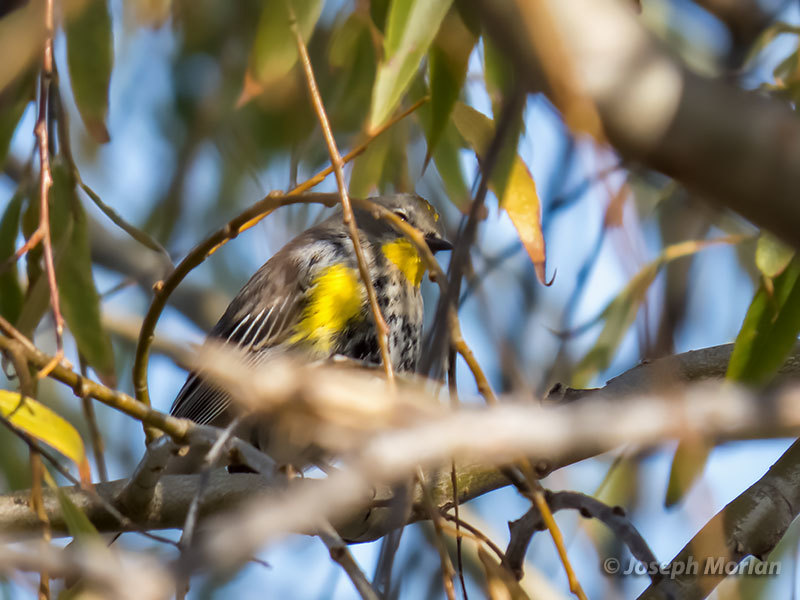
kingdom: Animalia
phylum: Chordata
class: Aves
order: Passeriformes
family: Parulidae
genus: Setophaga
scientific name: Setophaga coronata
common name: Myrtle warbler
